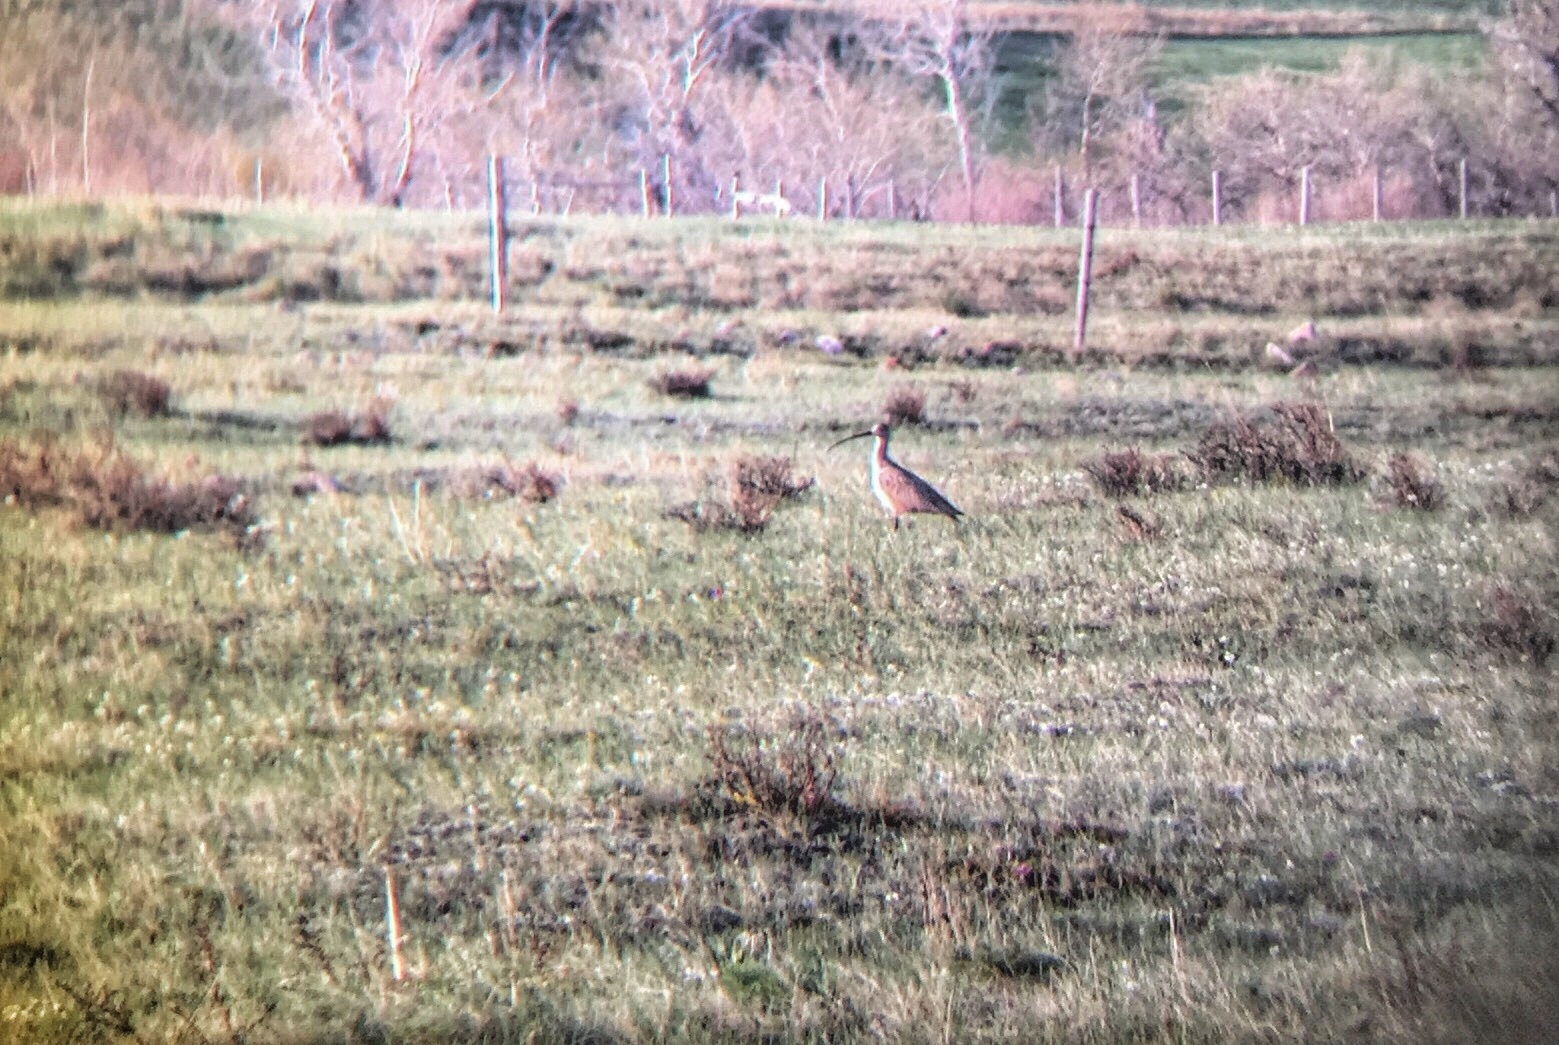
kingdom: Animalia
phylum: Chordata
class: Aves
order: Charadriiformes
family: Scolopacidae
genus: Numenius
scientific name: Numenius americanus
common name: Long-billed curlew
